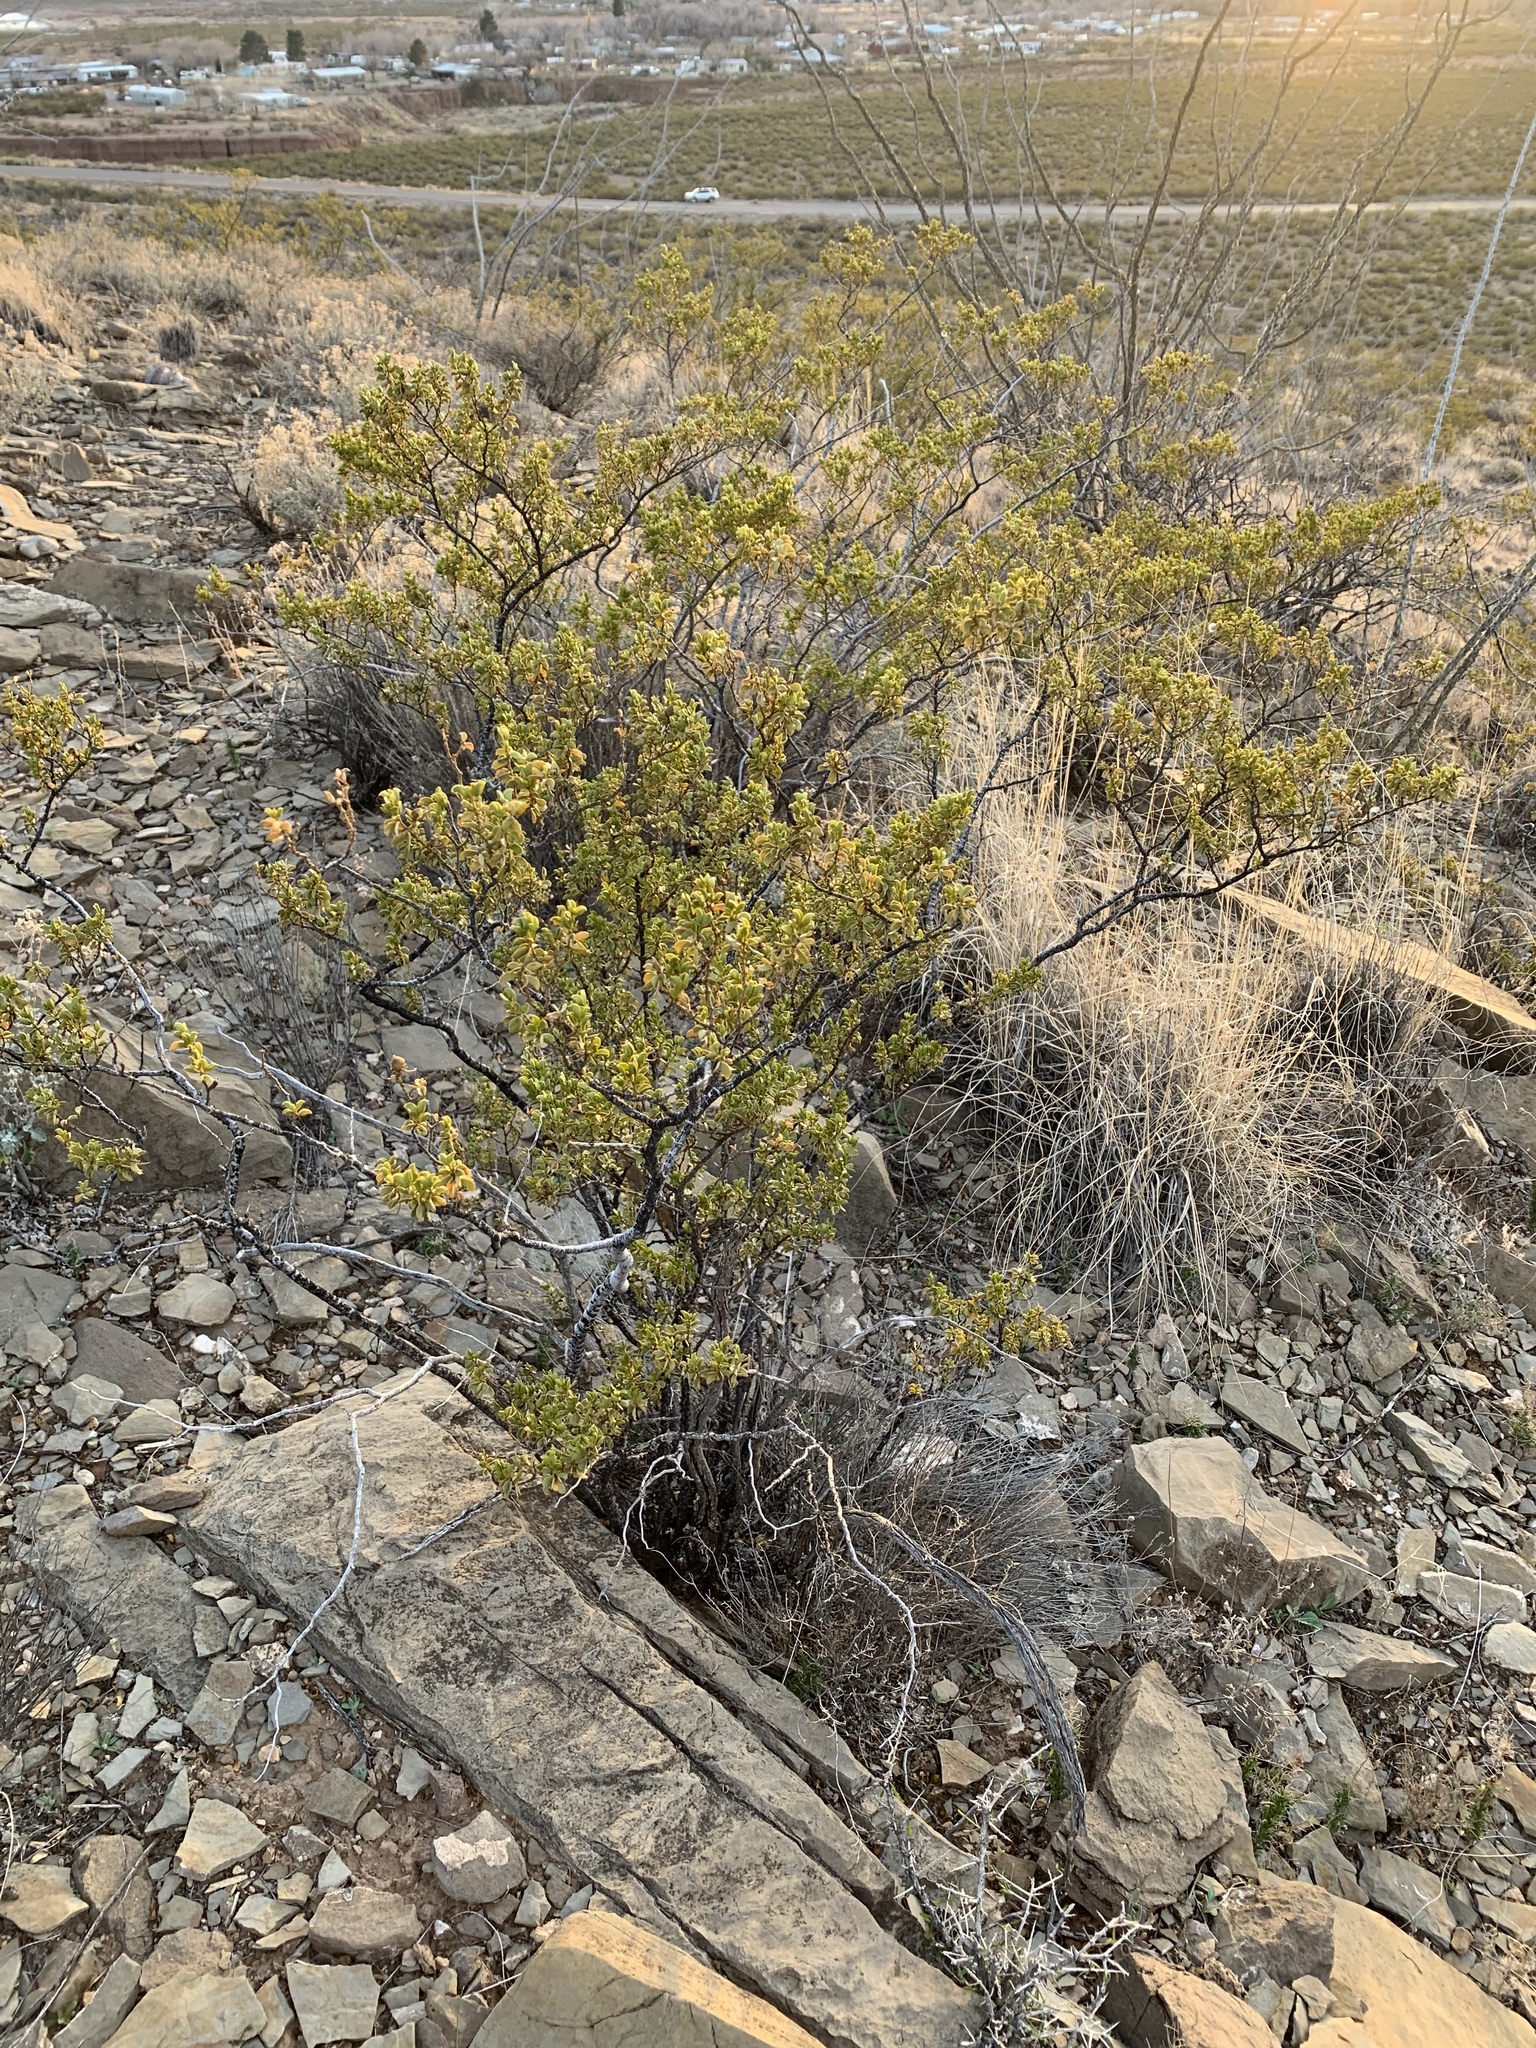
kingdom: Plantae
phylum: Tracheophyta
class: Magnoliopsida
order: Zygophyllales
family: Zygophyllaceae
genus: Larrea
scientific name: Larrea tridentata
